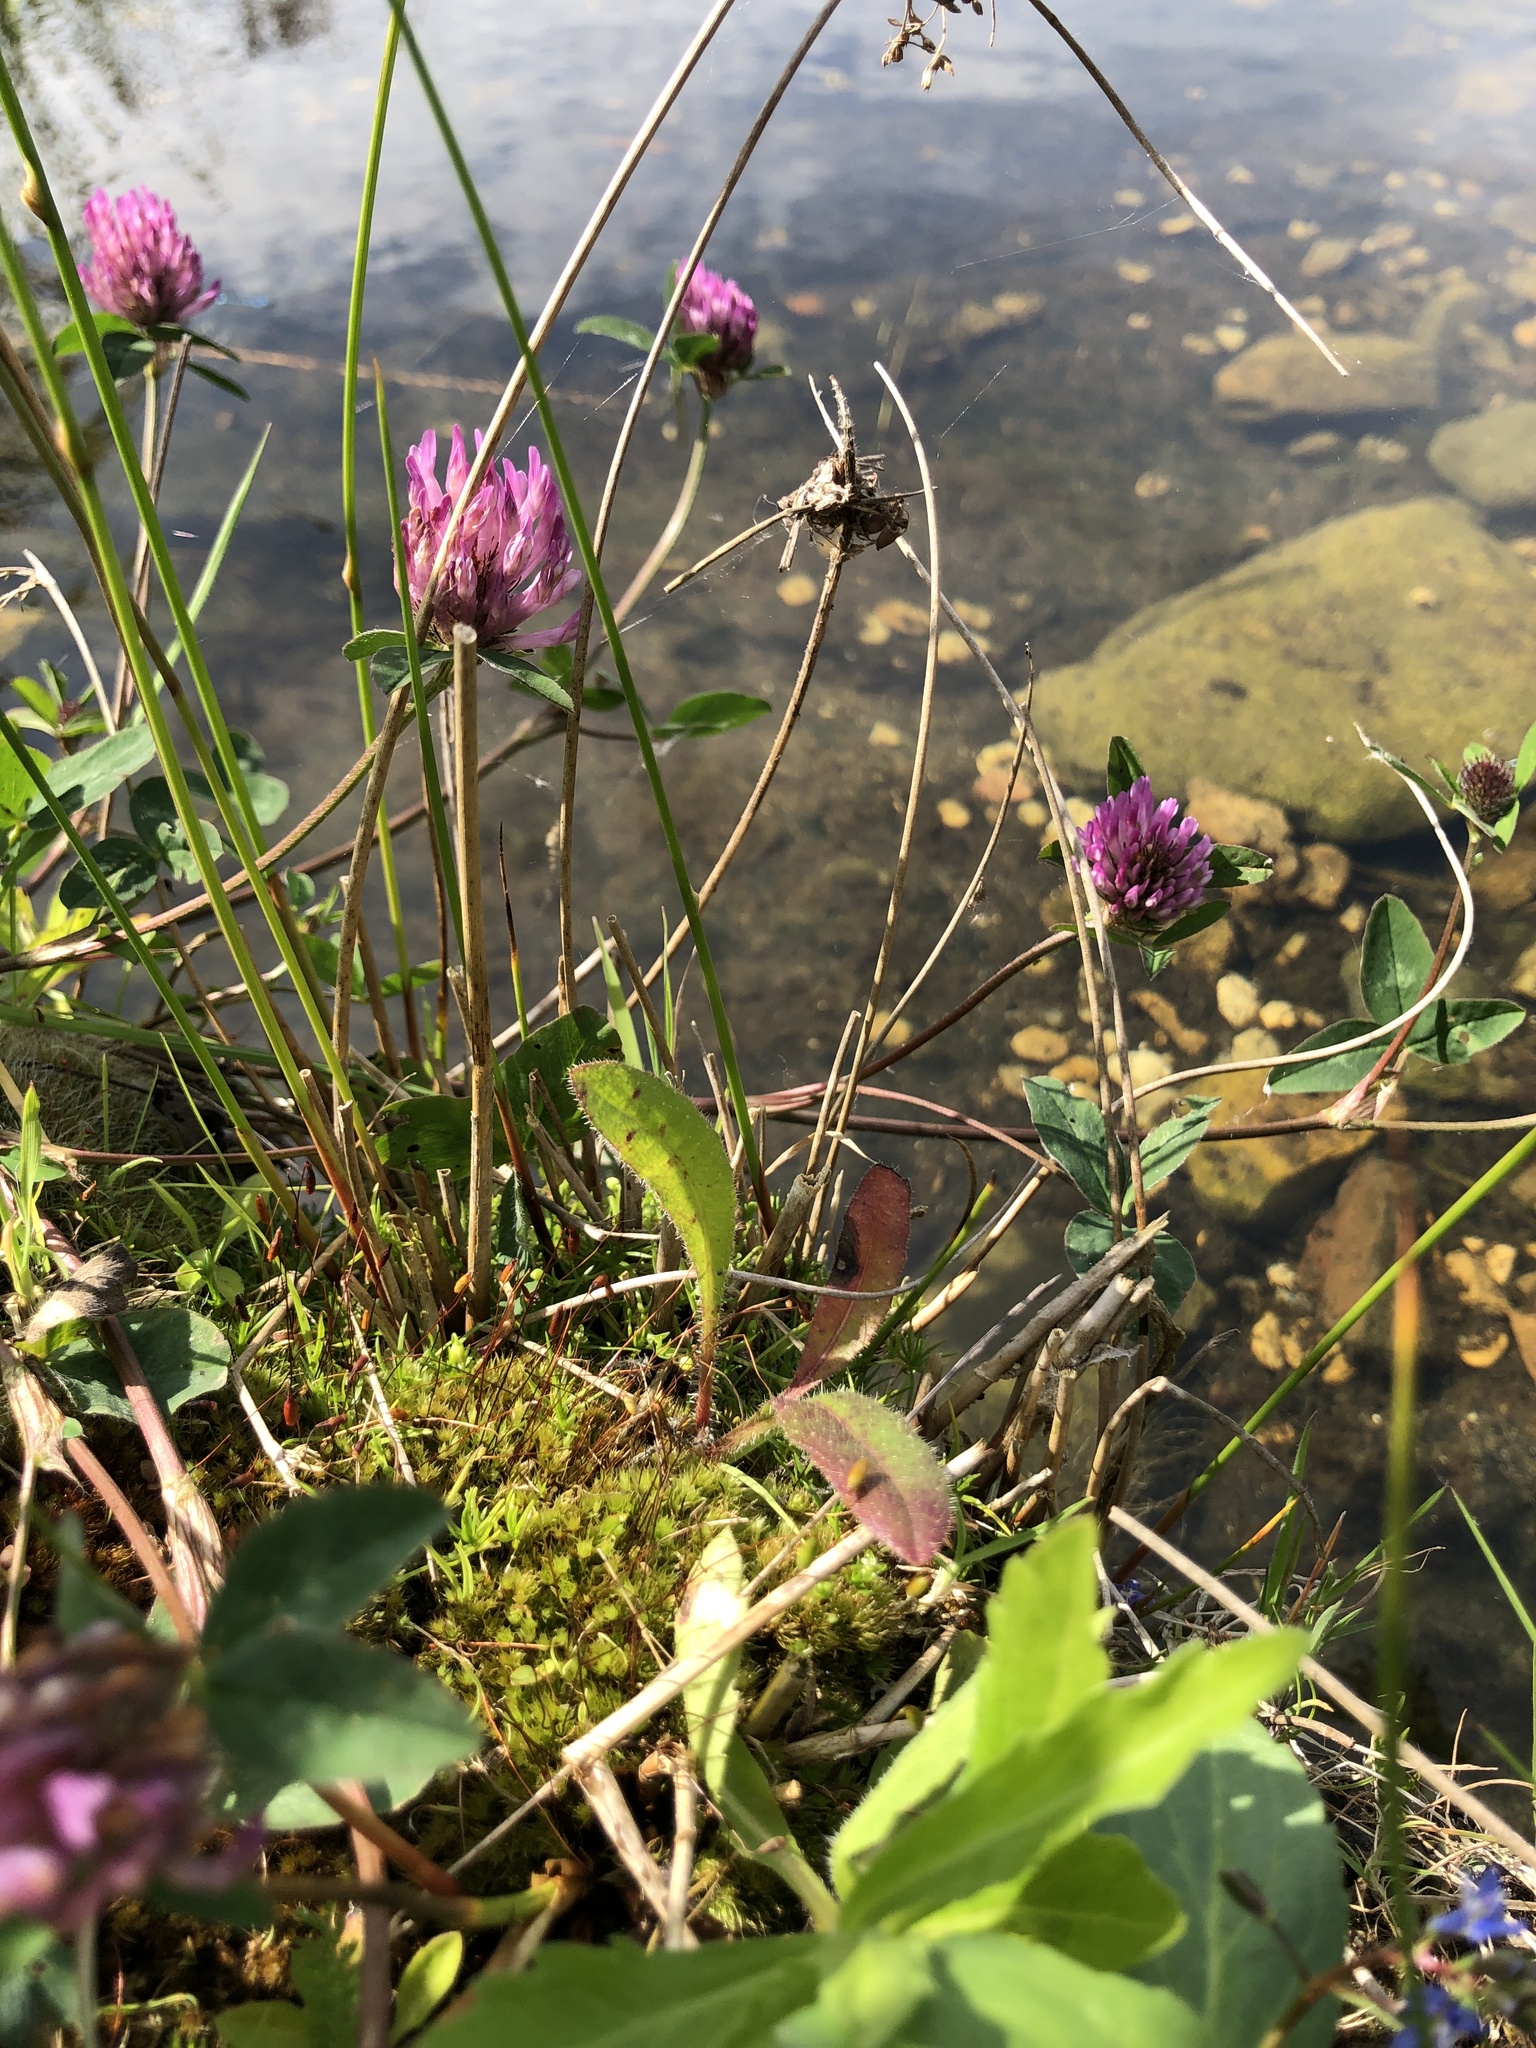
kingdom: Plantae
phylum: Bryophyta
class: Bryopsida
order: Bryales
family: Bryaceae
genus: Gemmabryum
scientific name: Gemmabryum caespiticium
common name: Handbell moss
